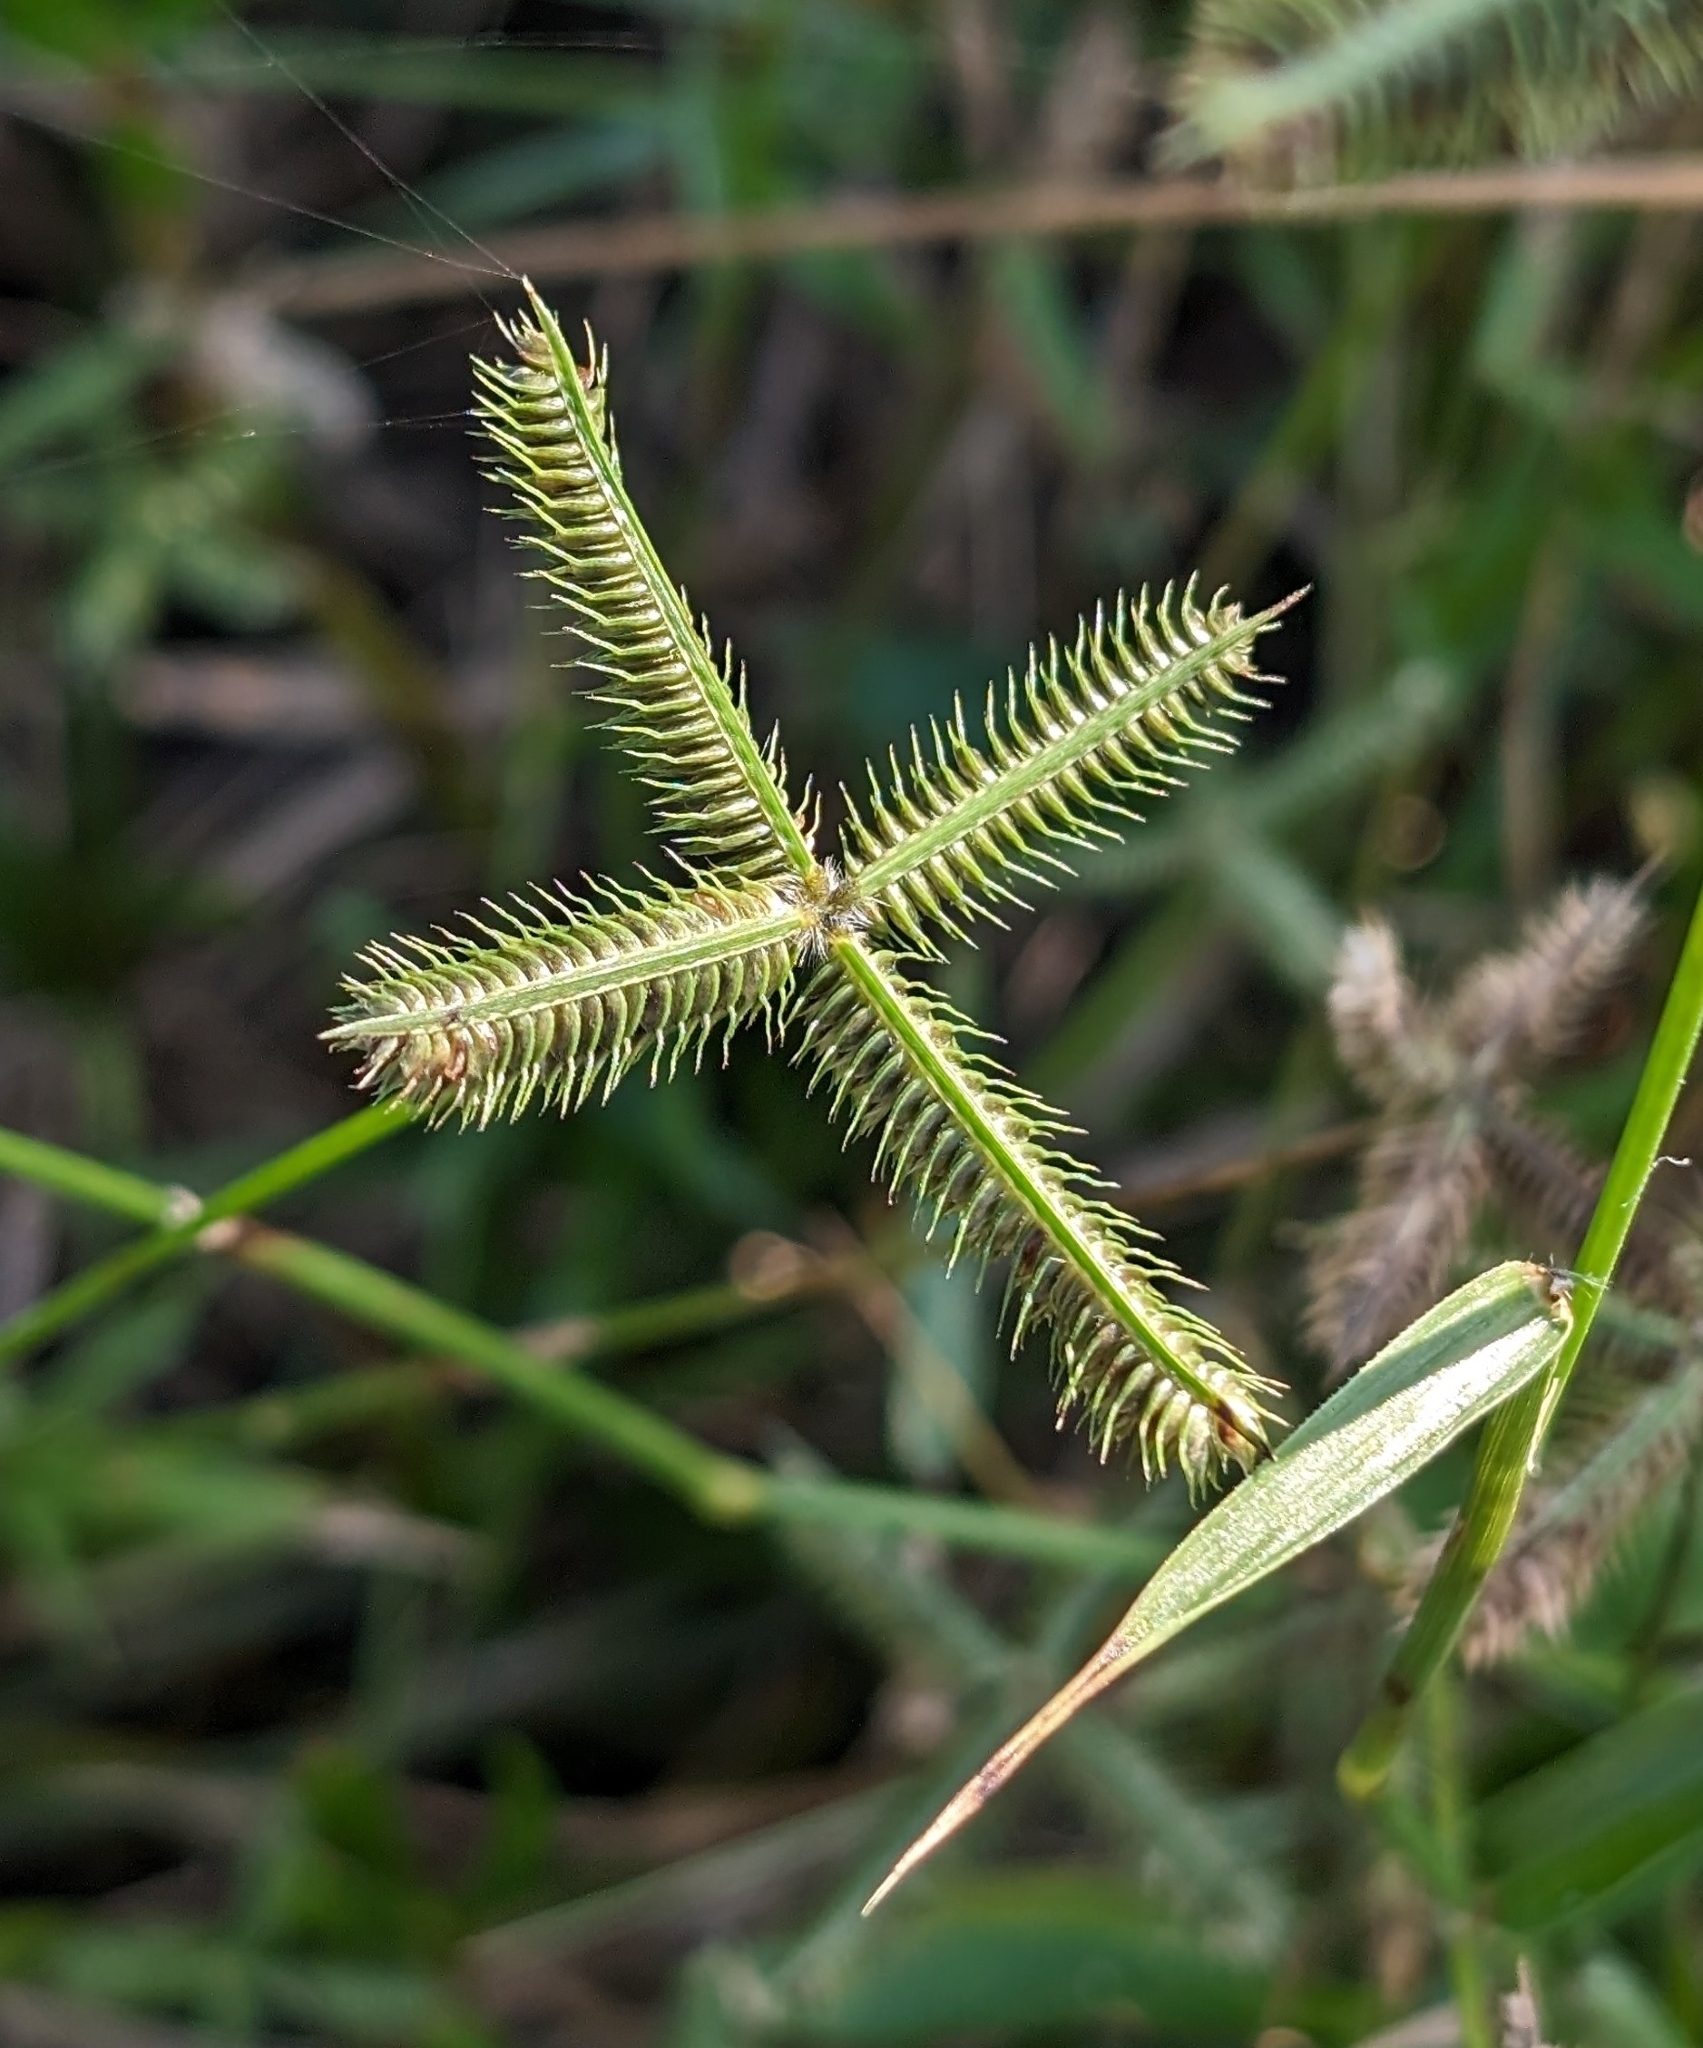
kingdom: Plantae
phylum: Tracheophyta
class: Liliopsida
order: Poales
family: Poaceae
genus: Dactyloctenium
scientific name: Dactyloctenium aegyptium
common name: Egyptian grass
